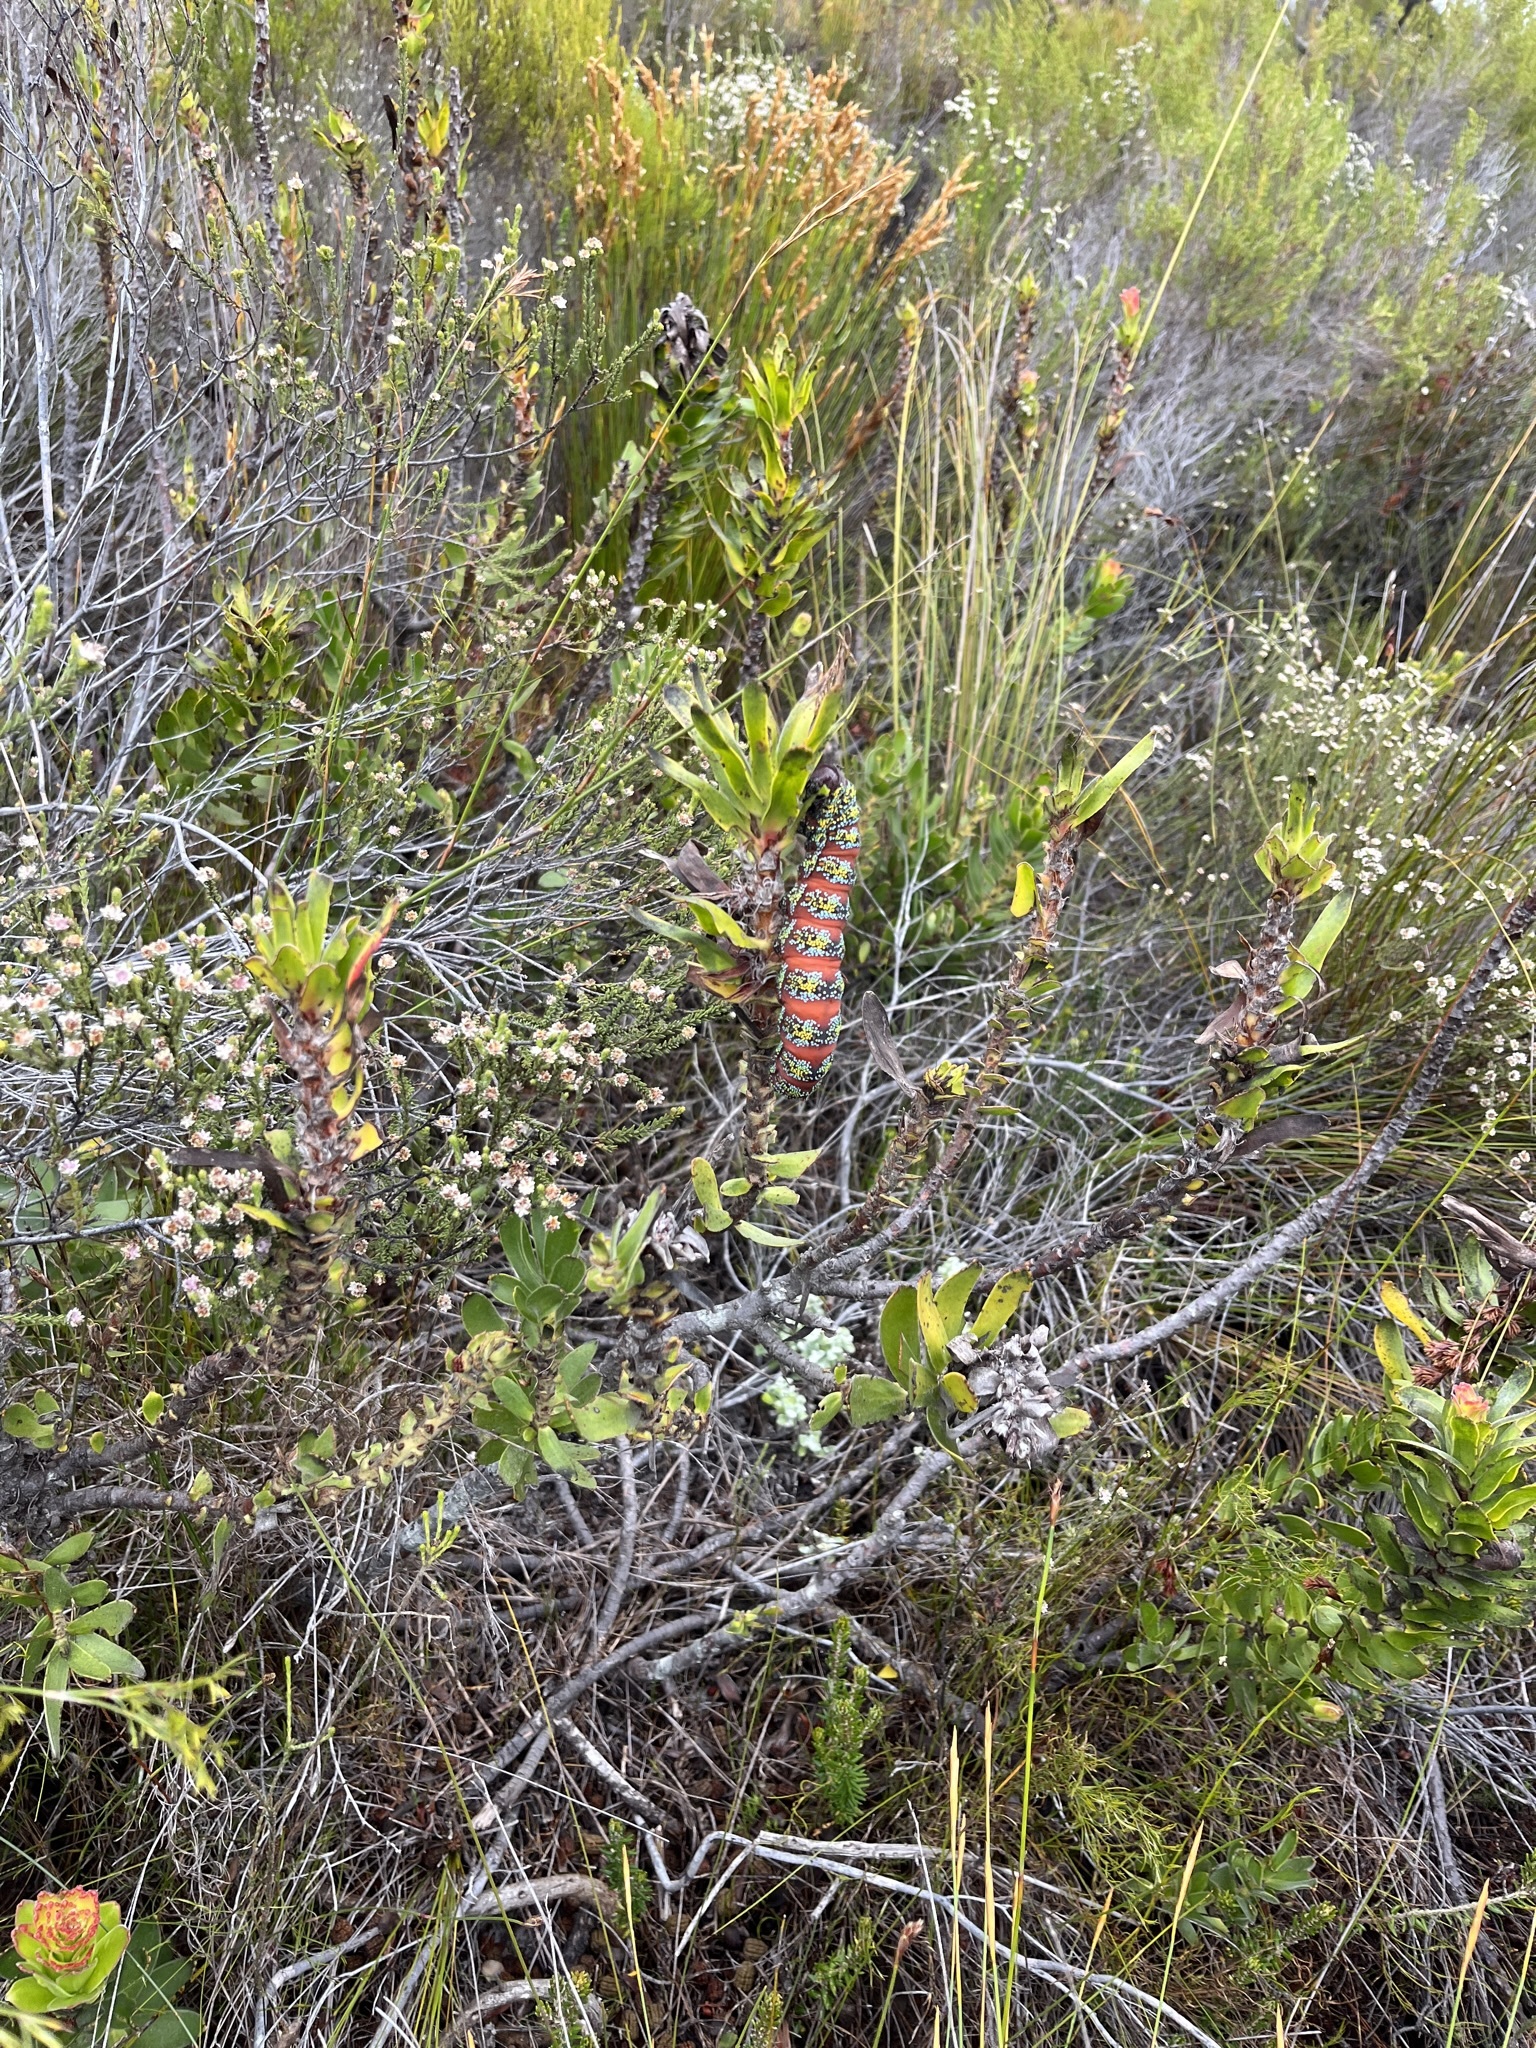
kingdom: Animalia
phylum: Arthropoda
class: Insecta
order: Lepidoptera
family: Saturniidae
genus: Nudaurelia
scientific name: Nudaurelia cytherea
